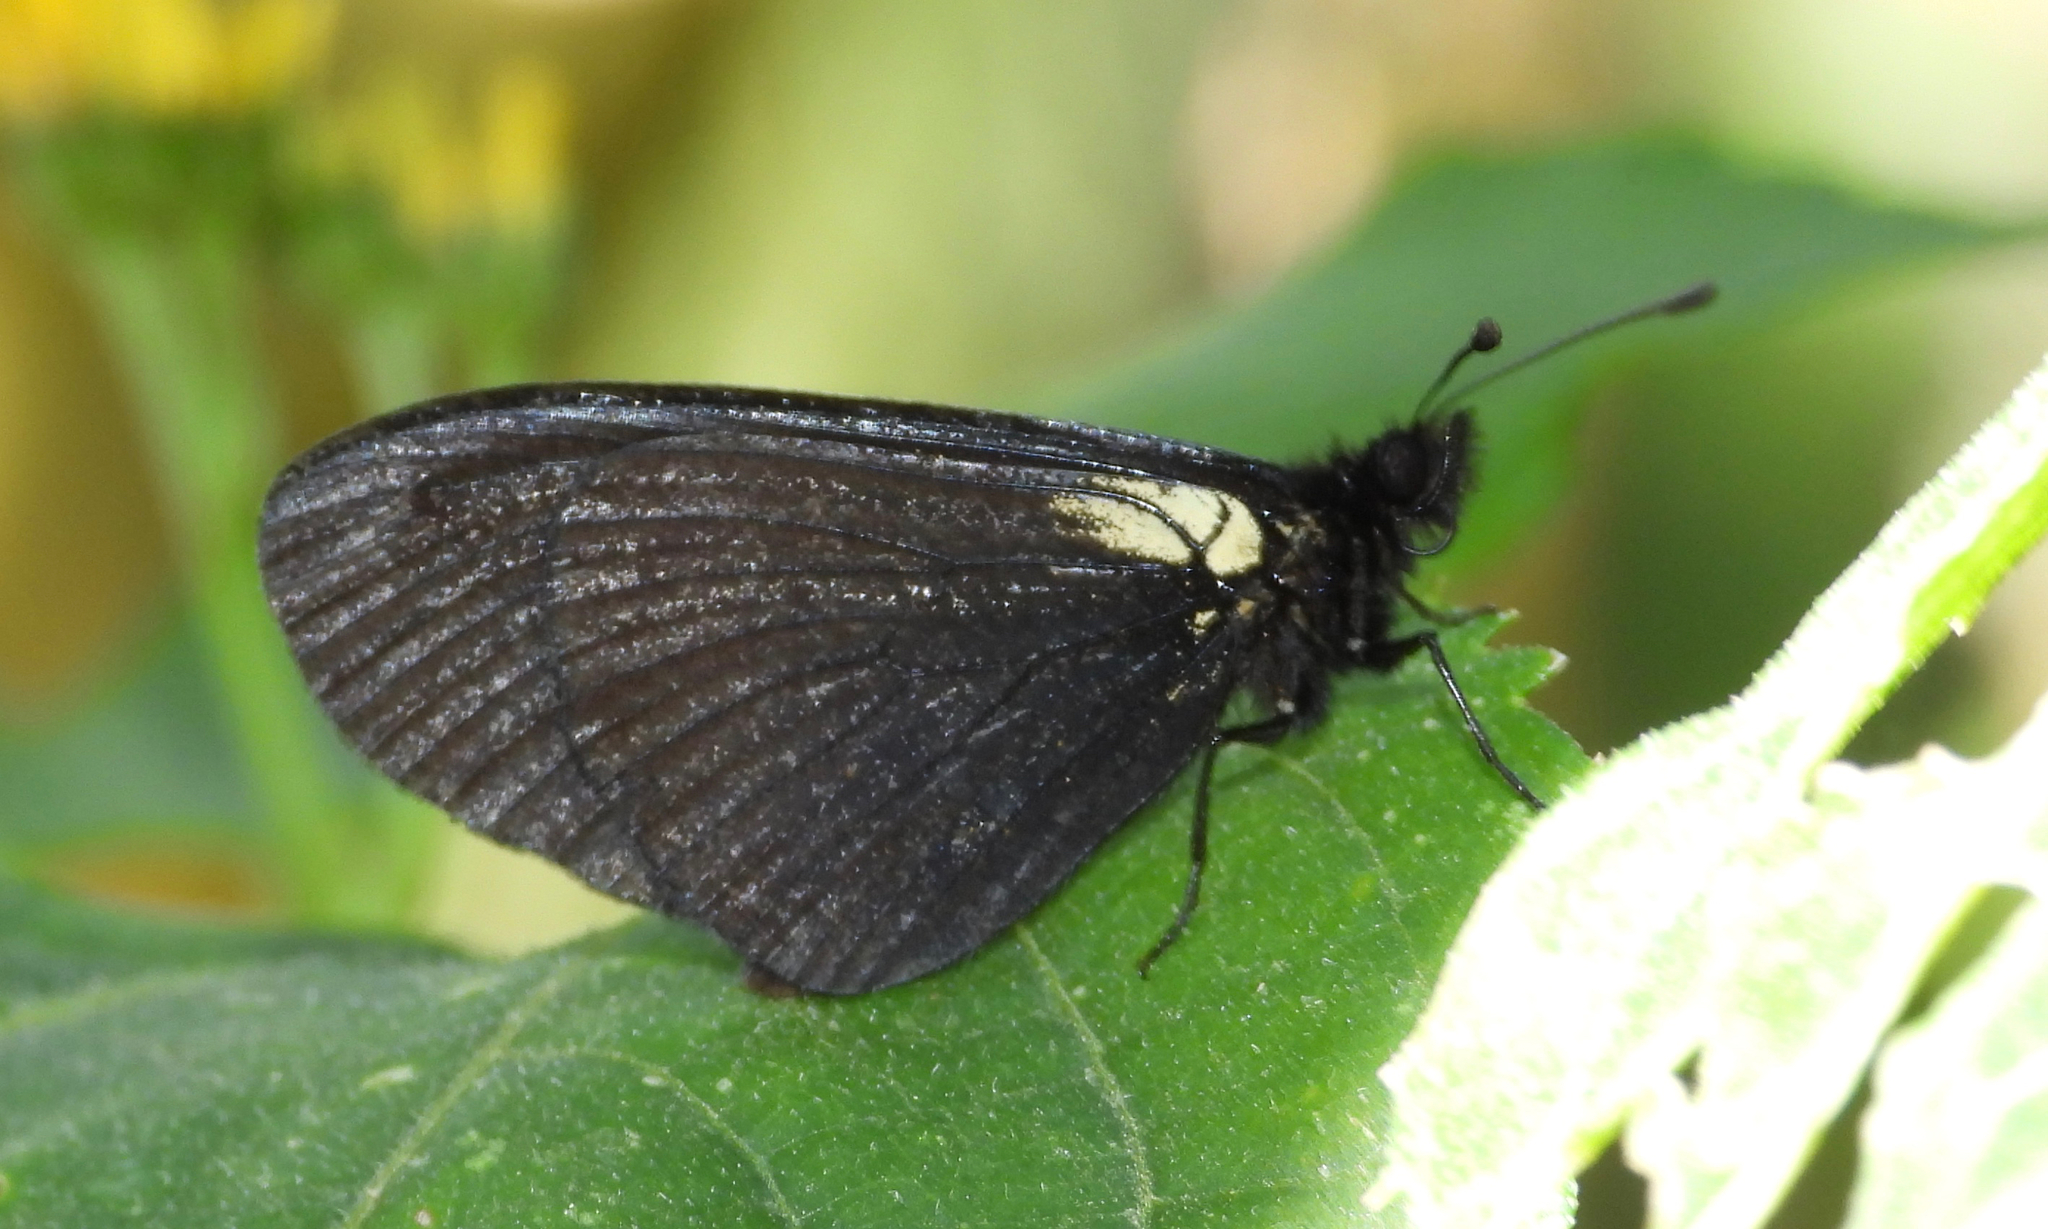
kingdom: Animalia
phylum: Arthropoda
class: Insecta
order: Lepidoptera
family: Nymphalidae
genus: Acraea
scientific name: Acraea Altinote ozomene
